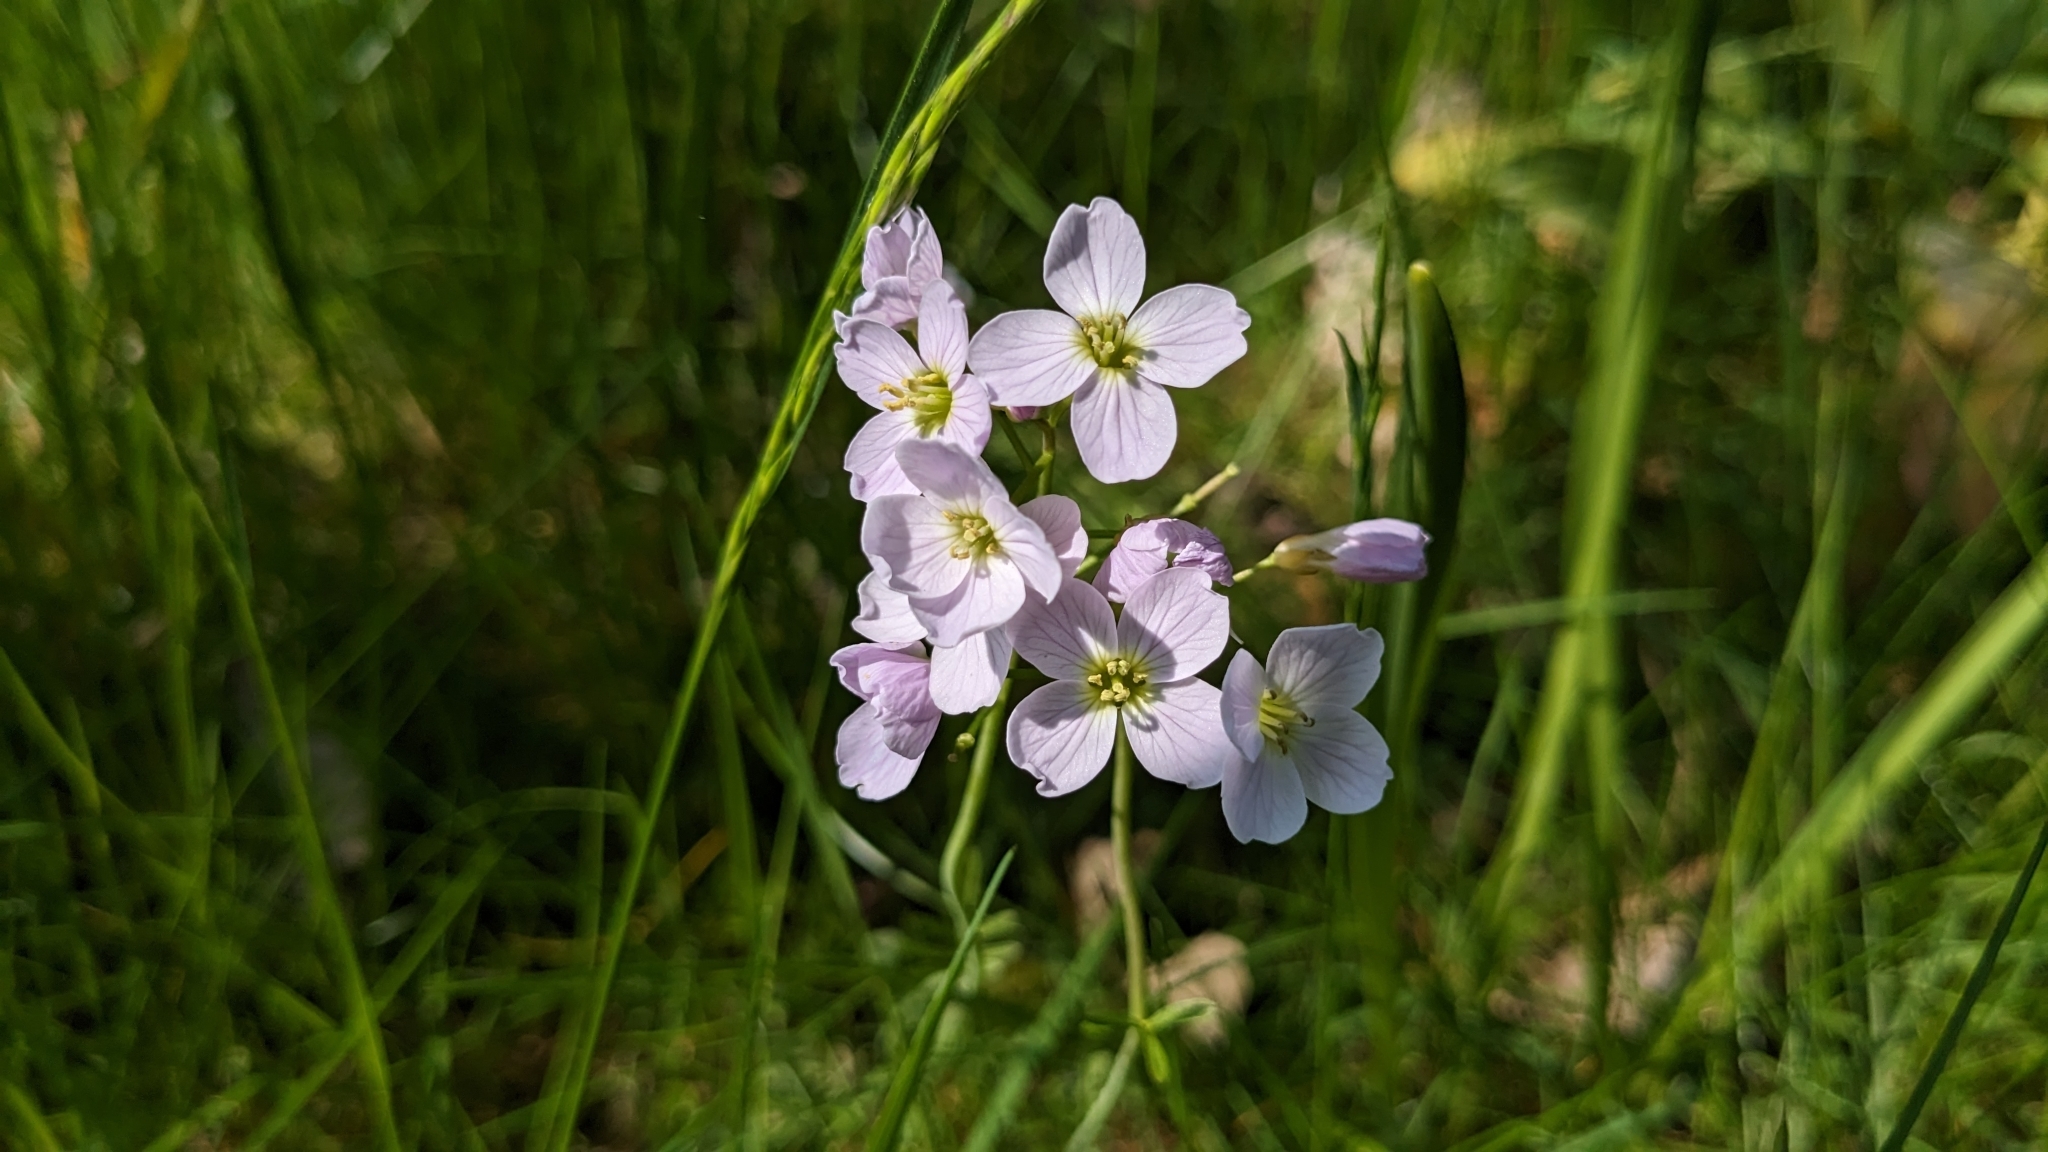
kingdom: Plantae
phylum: Tracheophyta
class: Magnoliopsida
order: Brassicales
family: Brassicaceae
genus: Cardamine
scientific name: Cardamine pratensis
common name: Cuckoo flower
